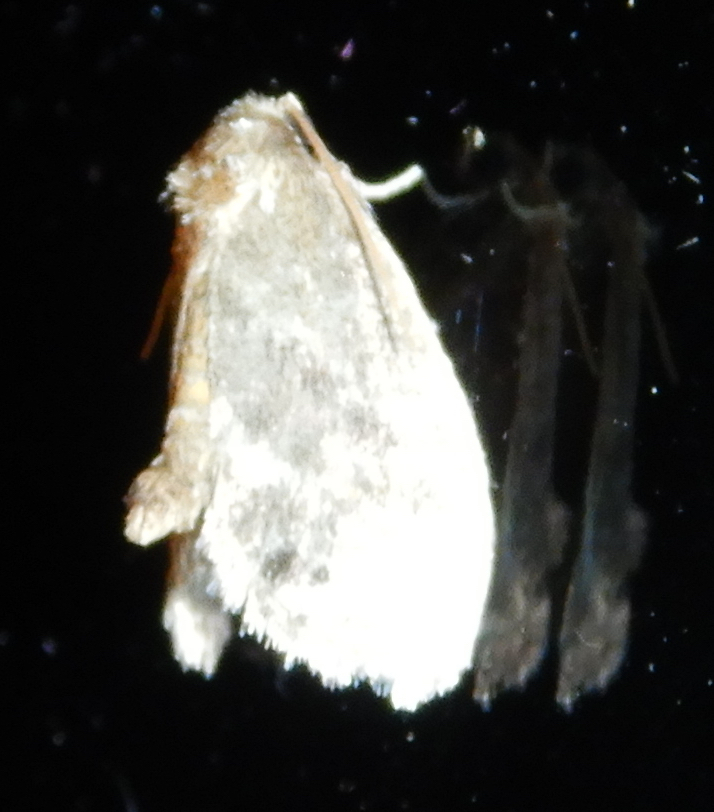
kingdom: Animalia
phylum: Arthropoda
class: Insecta
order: Lepidoptera
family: Limacodidae
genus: Packardia
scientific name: Packardia elegans
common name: Elegant tailed slug moth
